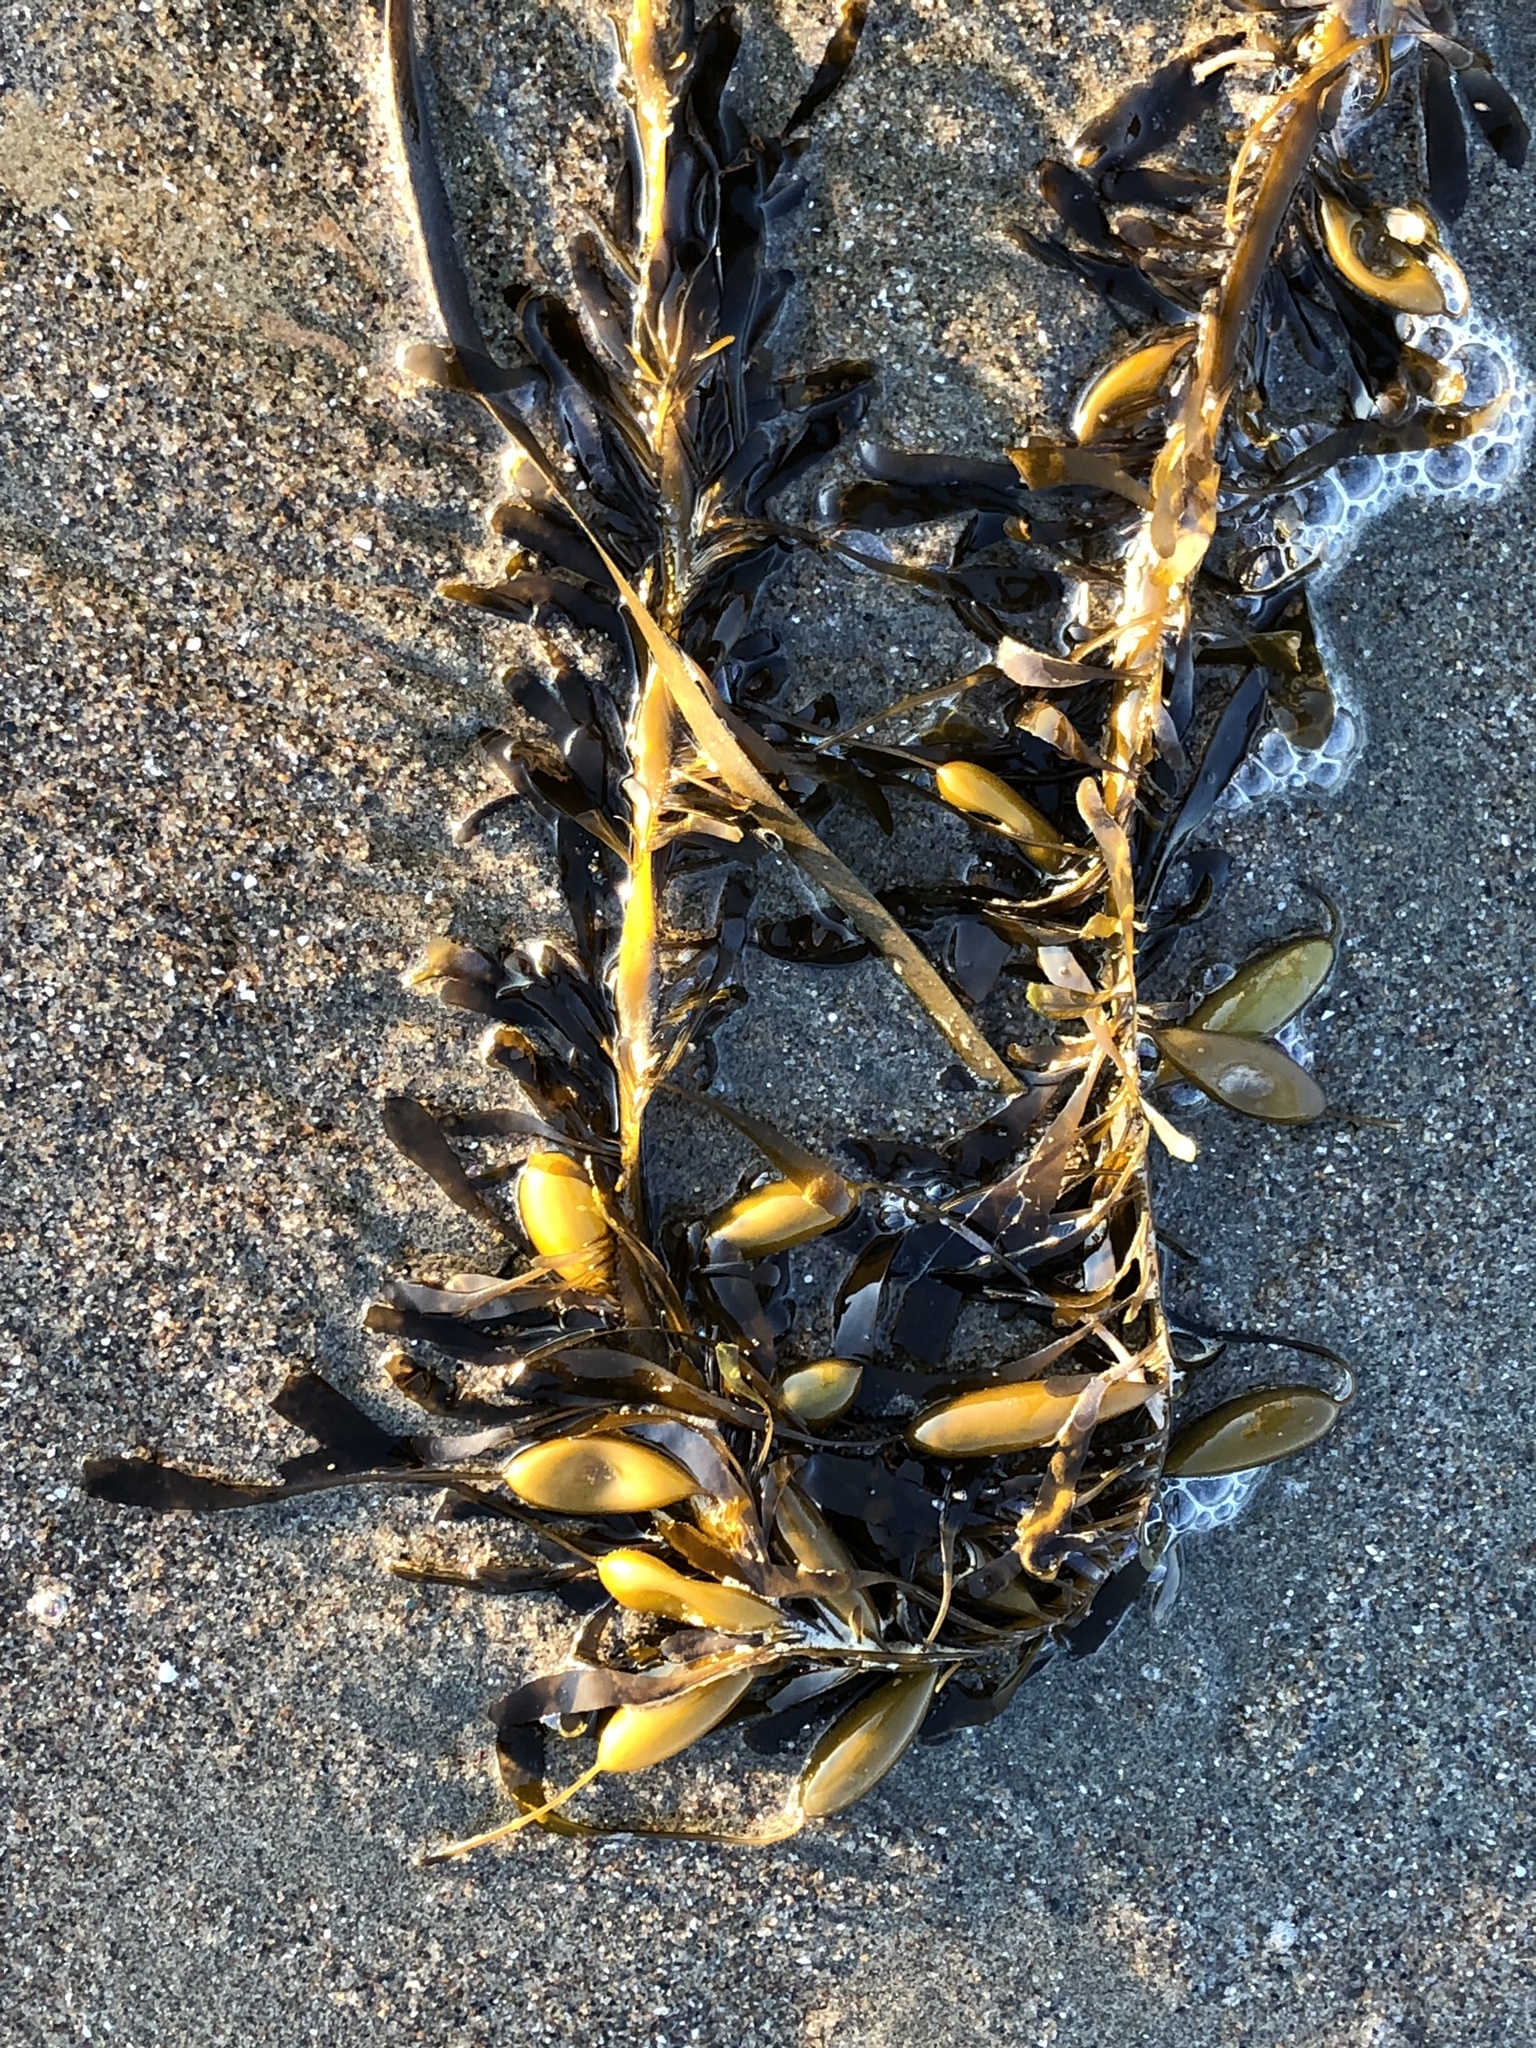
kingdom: Chromista
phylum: Ochrophyta
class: Phaeophyceae
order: Laminariales
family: Lessoniaceae
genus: Egregia
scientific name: Egregia menziesii
